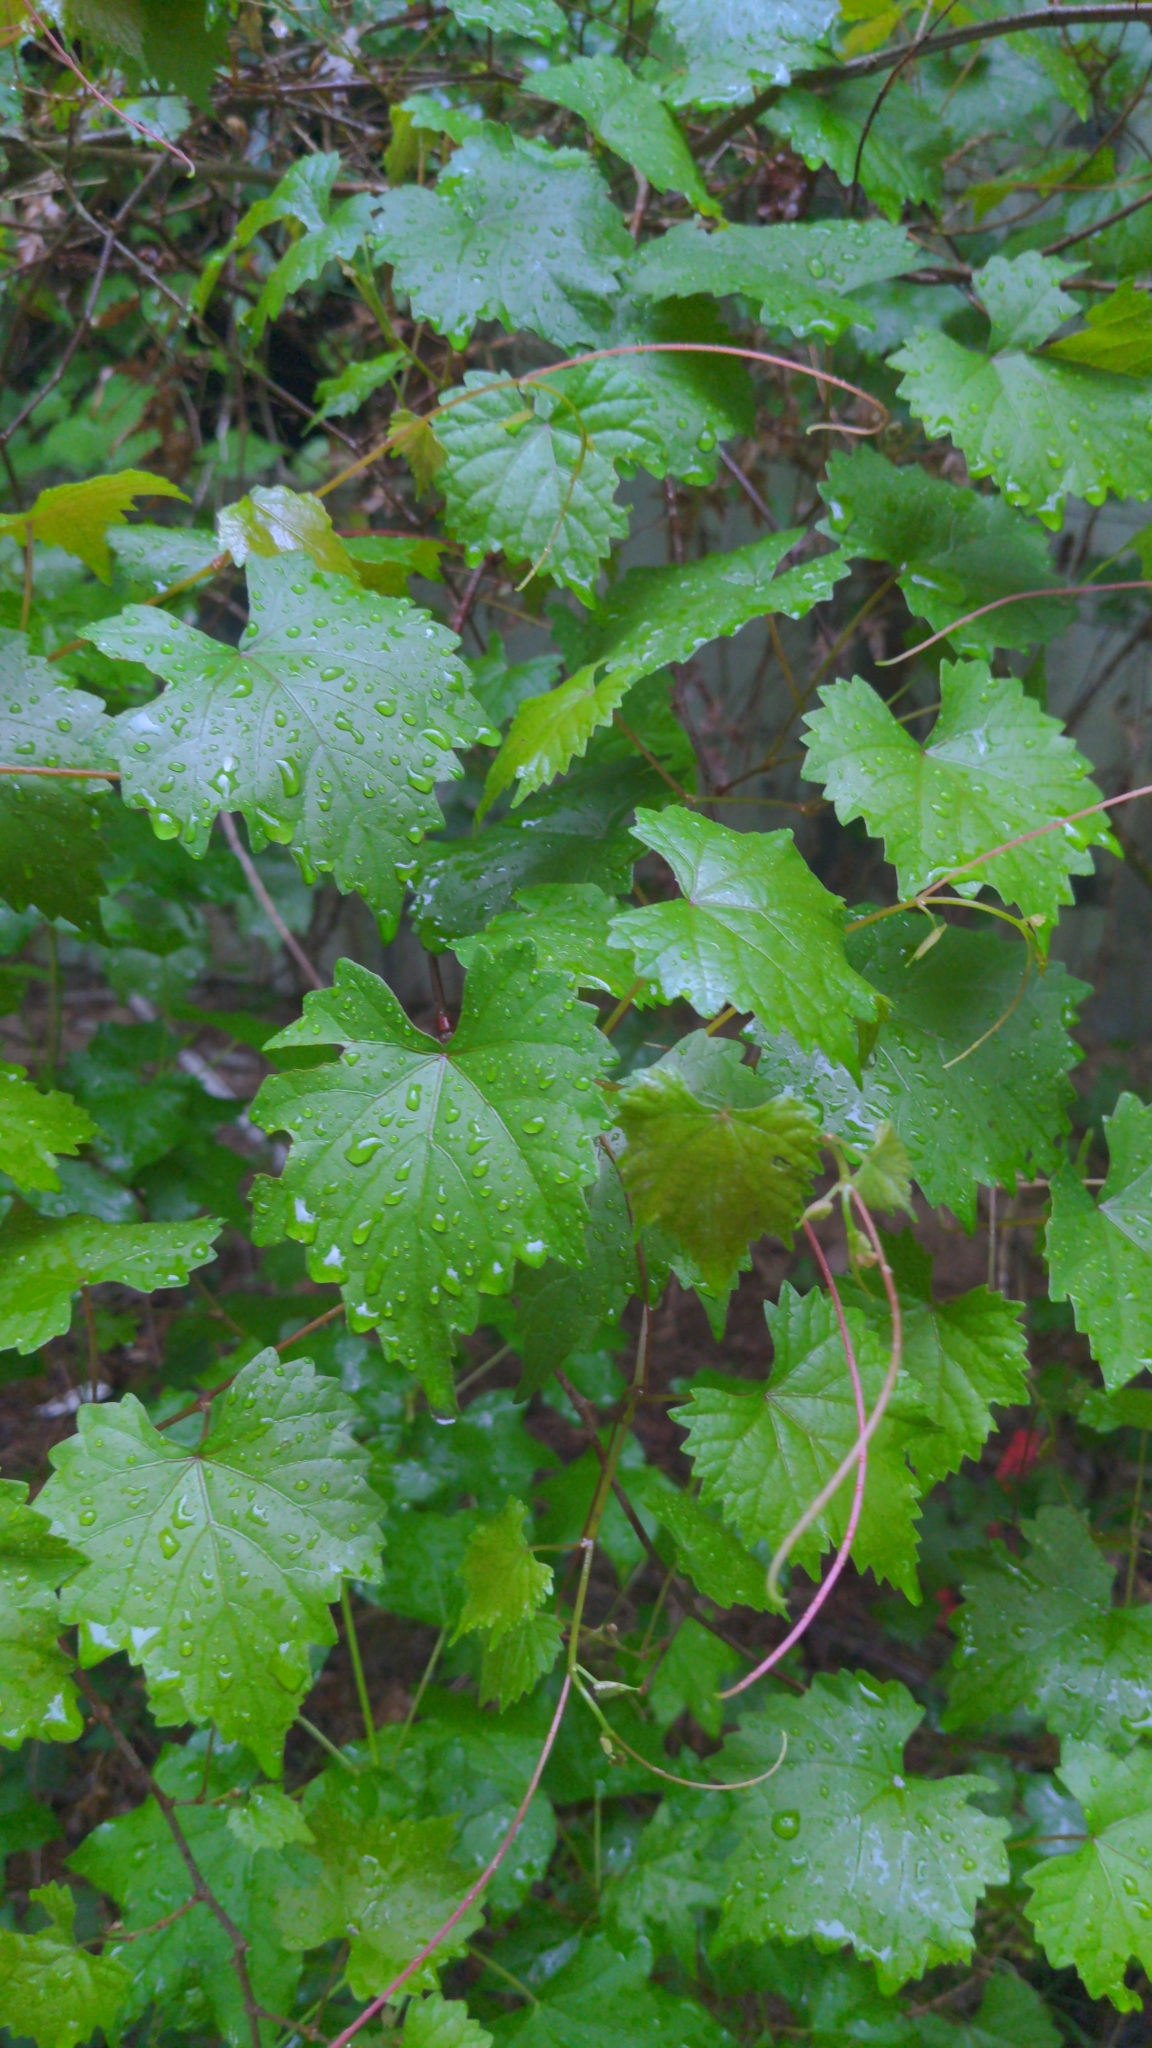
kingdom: Plantae
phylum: Tracheophyta
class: Magnoliopsida
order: Vitales
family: Vitaceae
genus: Vitis
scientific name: Vitis rotundifolia
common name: Muscadine grape
